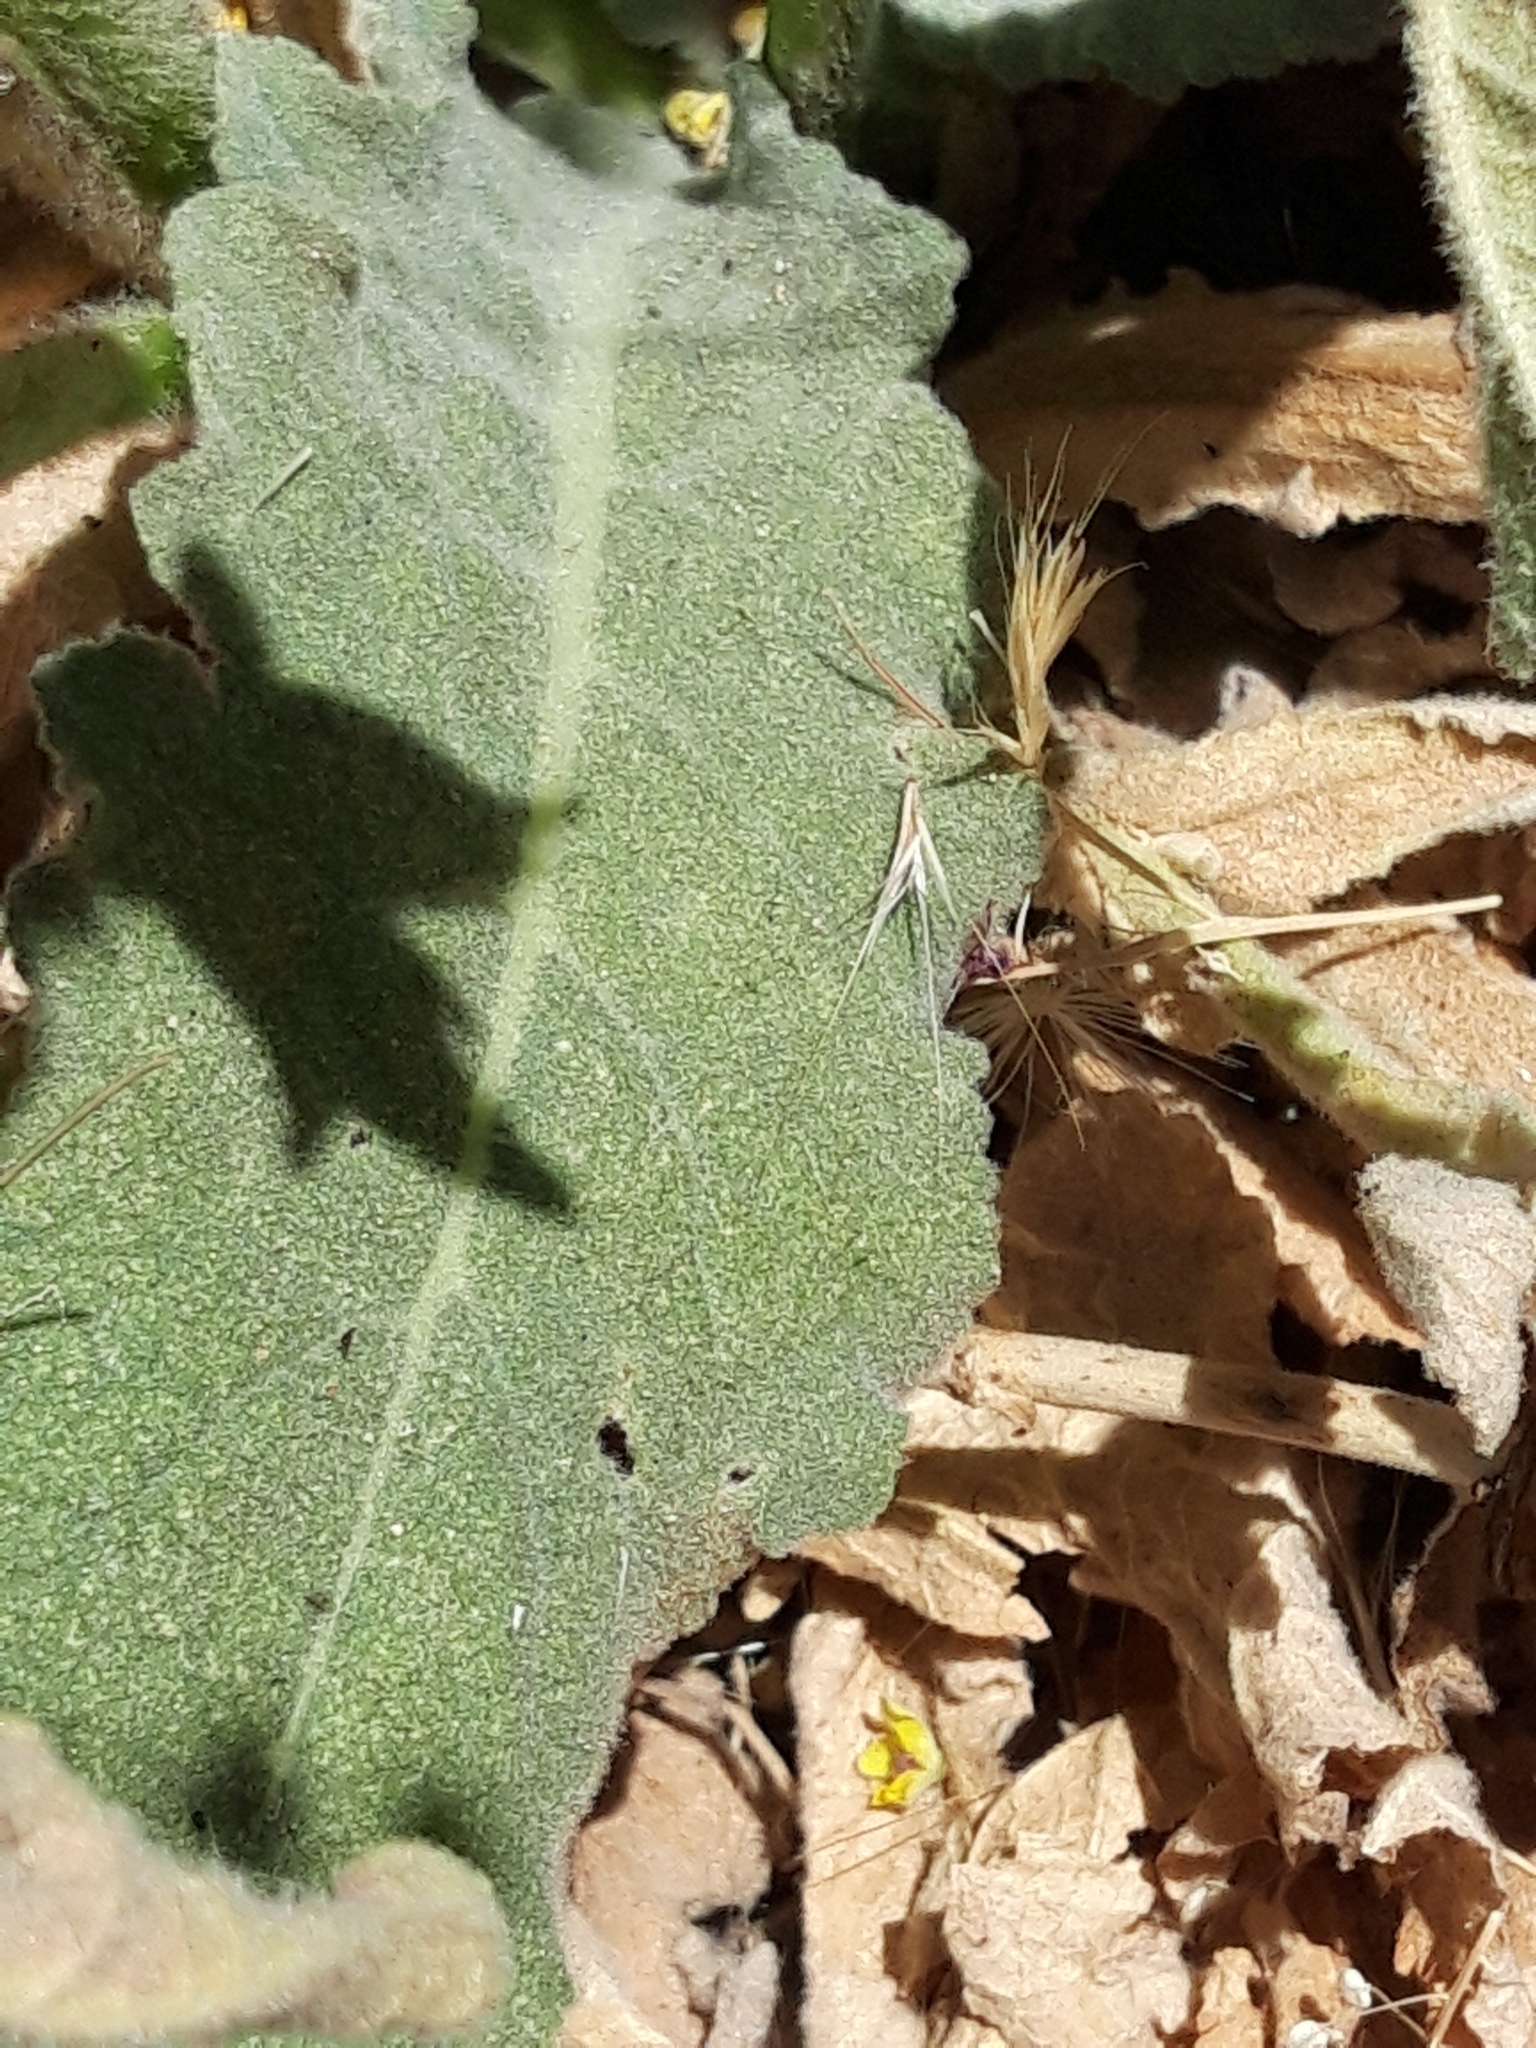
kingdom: Plantae
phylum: Tracheophyta
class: Magnoliopsida
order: Lamiales
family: Scrophulariaceae
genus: Verbascum
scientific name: Verbascum sinuatum
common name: Wavyleaf mullein
